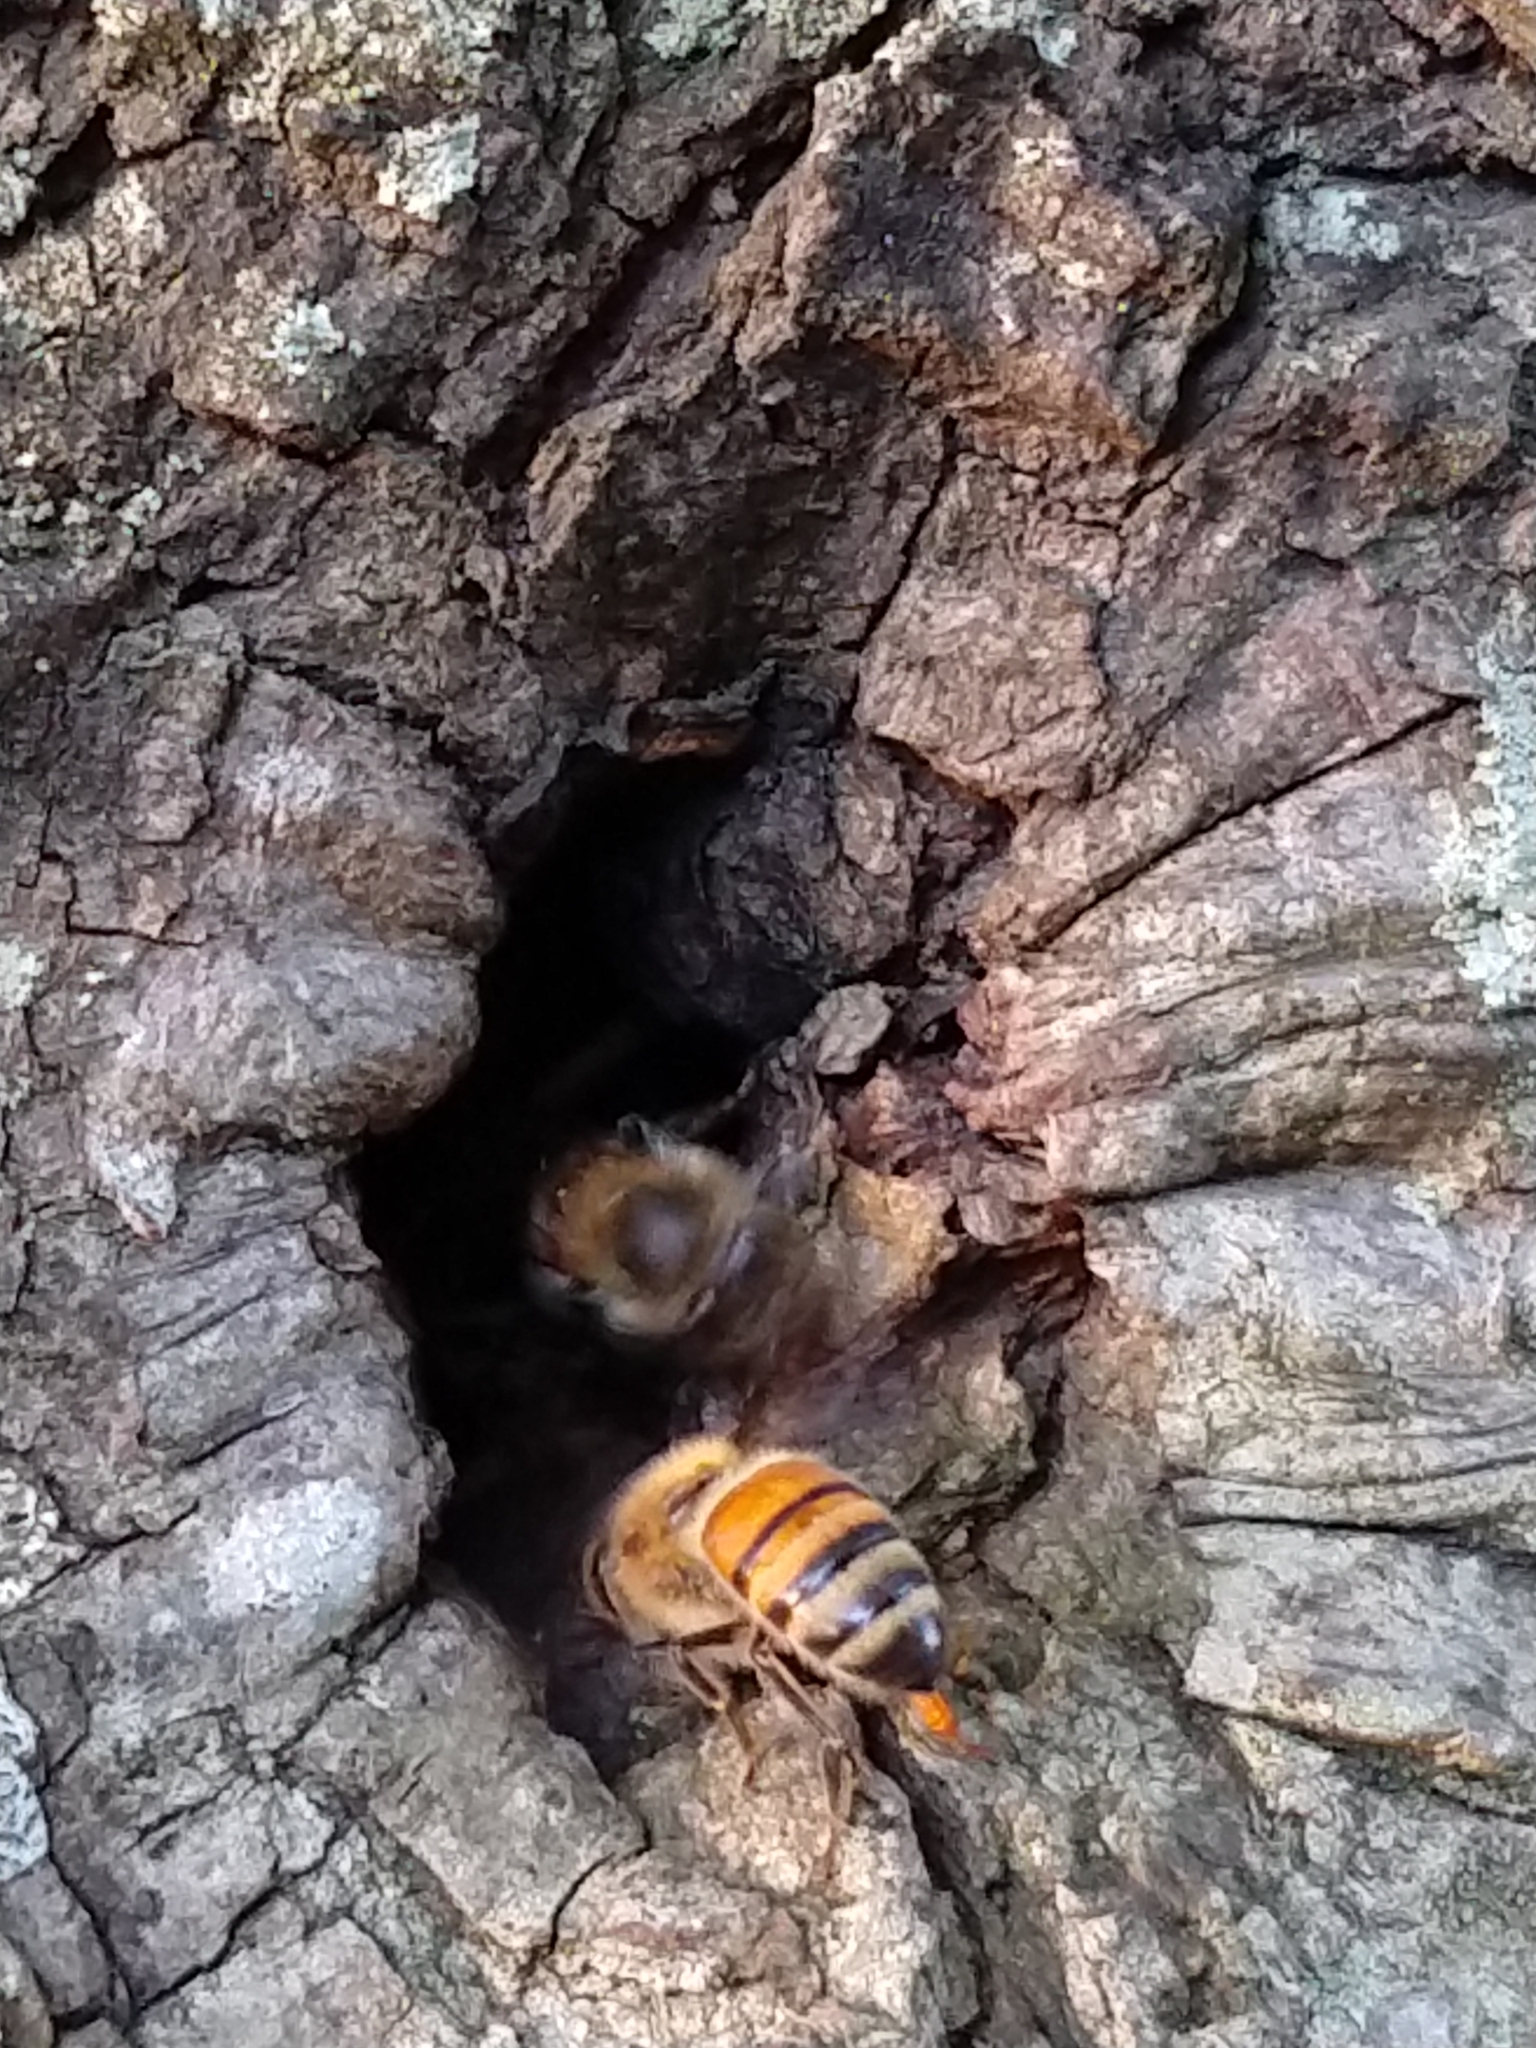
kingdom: Animalia
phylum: Arthropoda
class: Insecta
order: Hymenoptera
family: Apidae
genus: Apis
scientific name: Apis mellifera
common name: Honey bee
